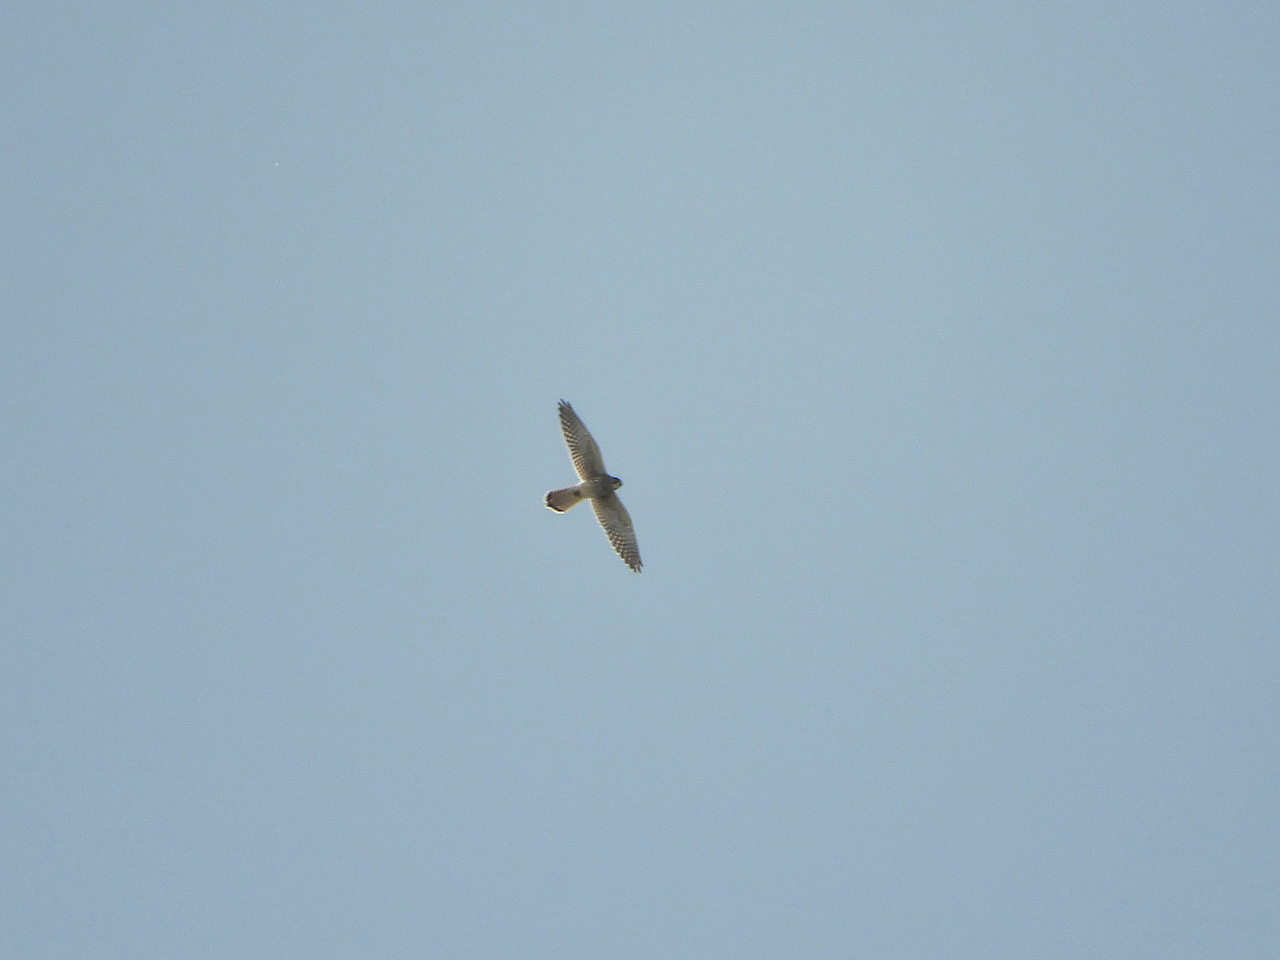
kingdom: Animalia
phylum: Chordata
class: Aves
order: Falconiformes
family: Falconidae
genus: Falco
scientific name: Falco tinnunculus
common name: Common kestrel
